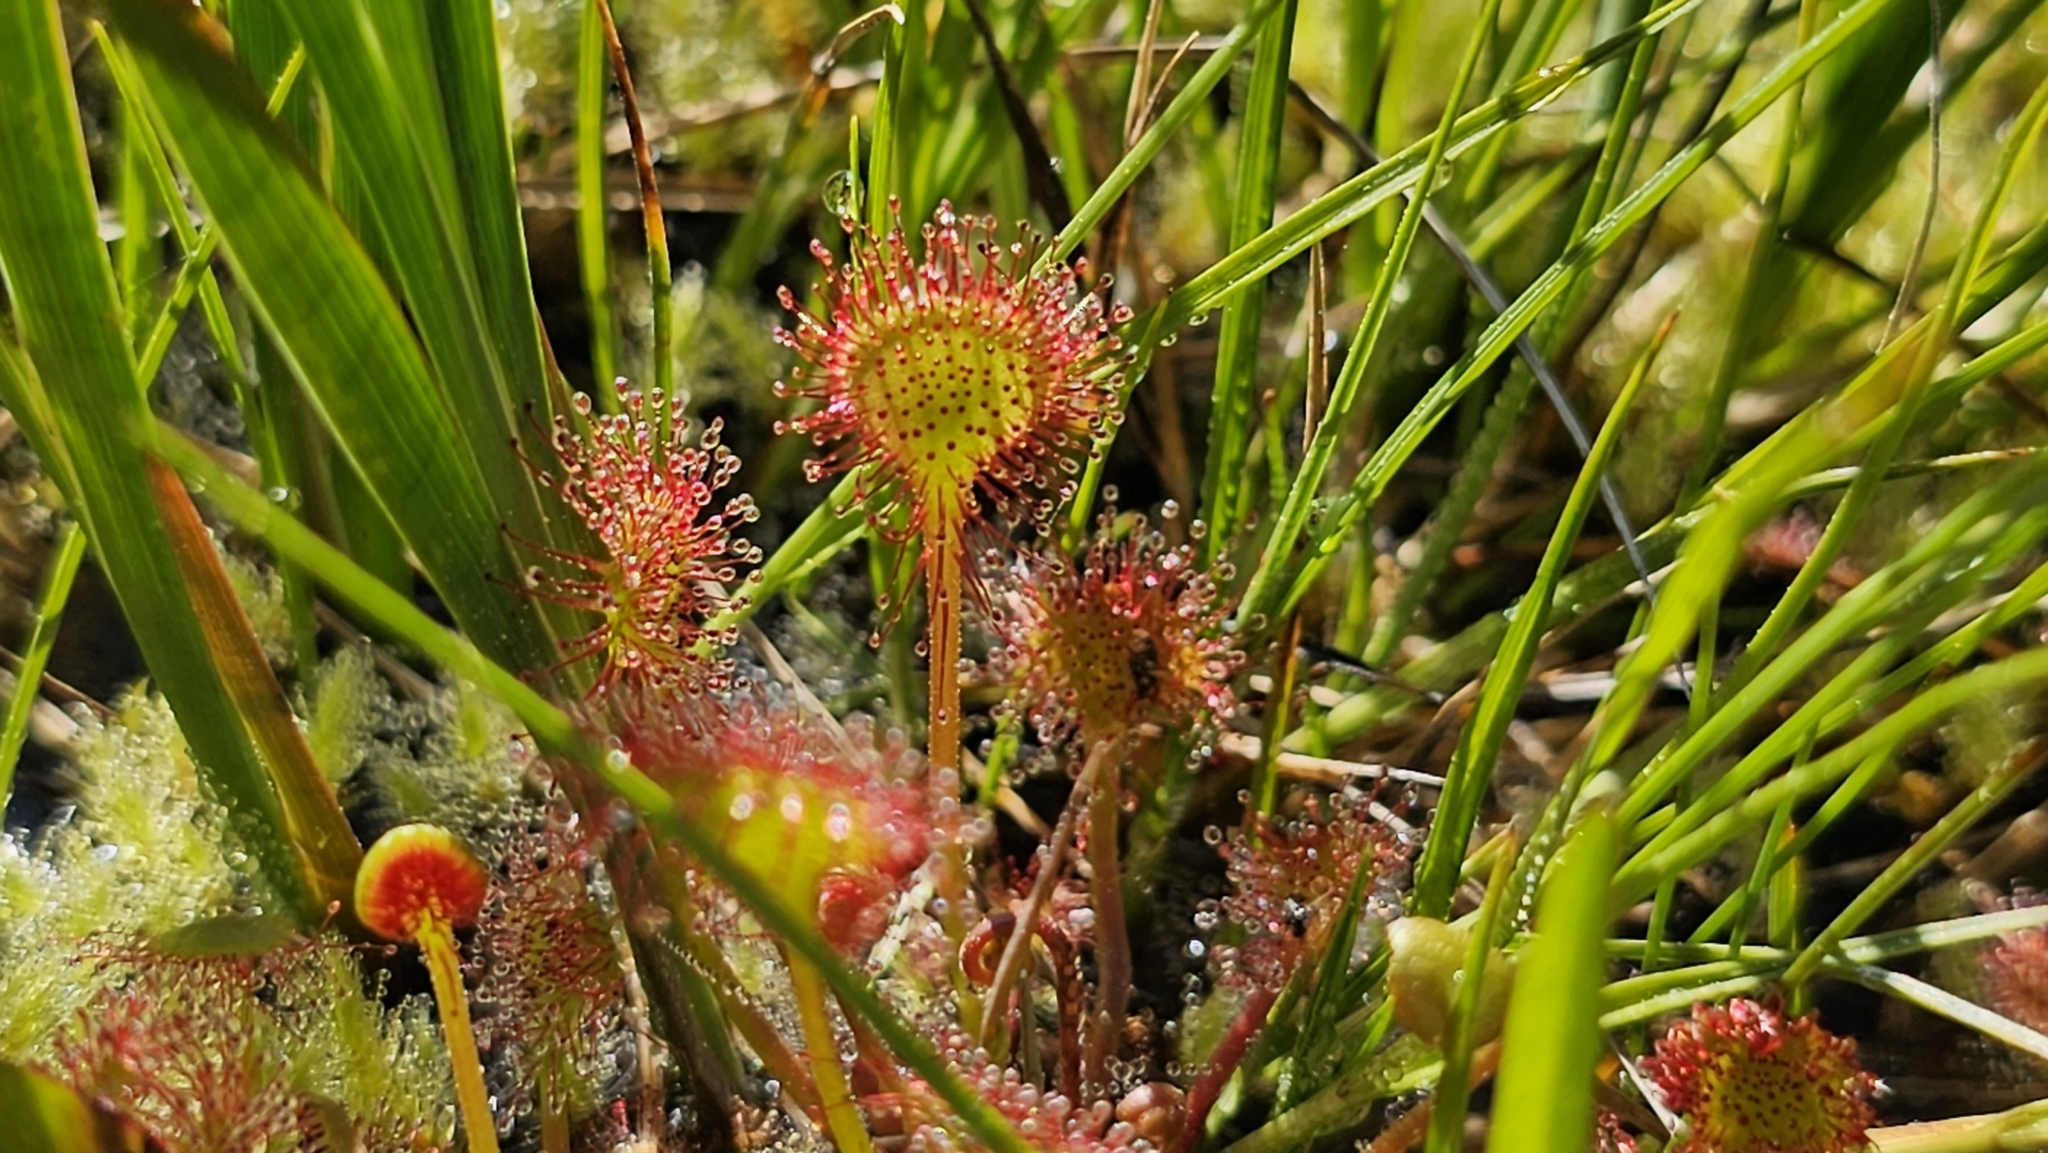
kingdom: Plantae
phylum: Tracheophyta
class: Magnoliopsida
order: Caryophyllales
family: Droseraceae
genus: Drosera
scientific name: Drosera rotundifolia
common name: Round-leaved sundew
